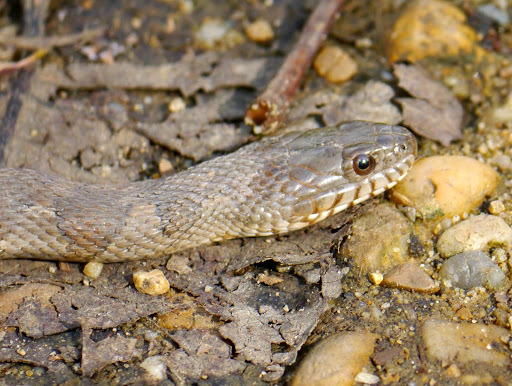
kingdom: Animalia
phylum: Chordata
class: Squamata
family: Colubridae
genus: Nerodia
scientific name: Nerodia sipedon
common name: Northern water snake
